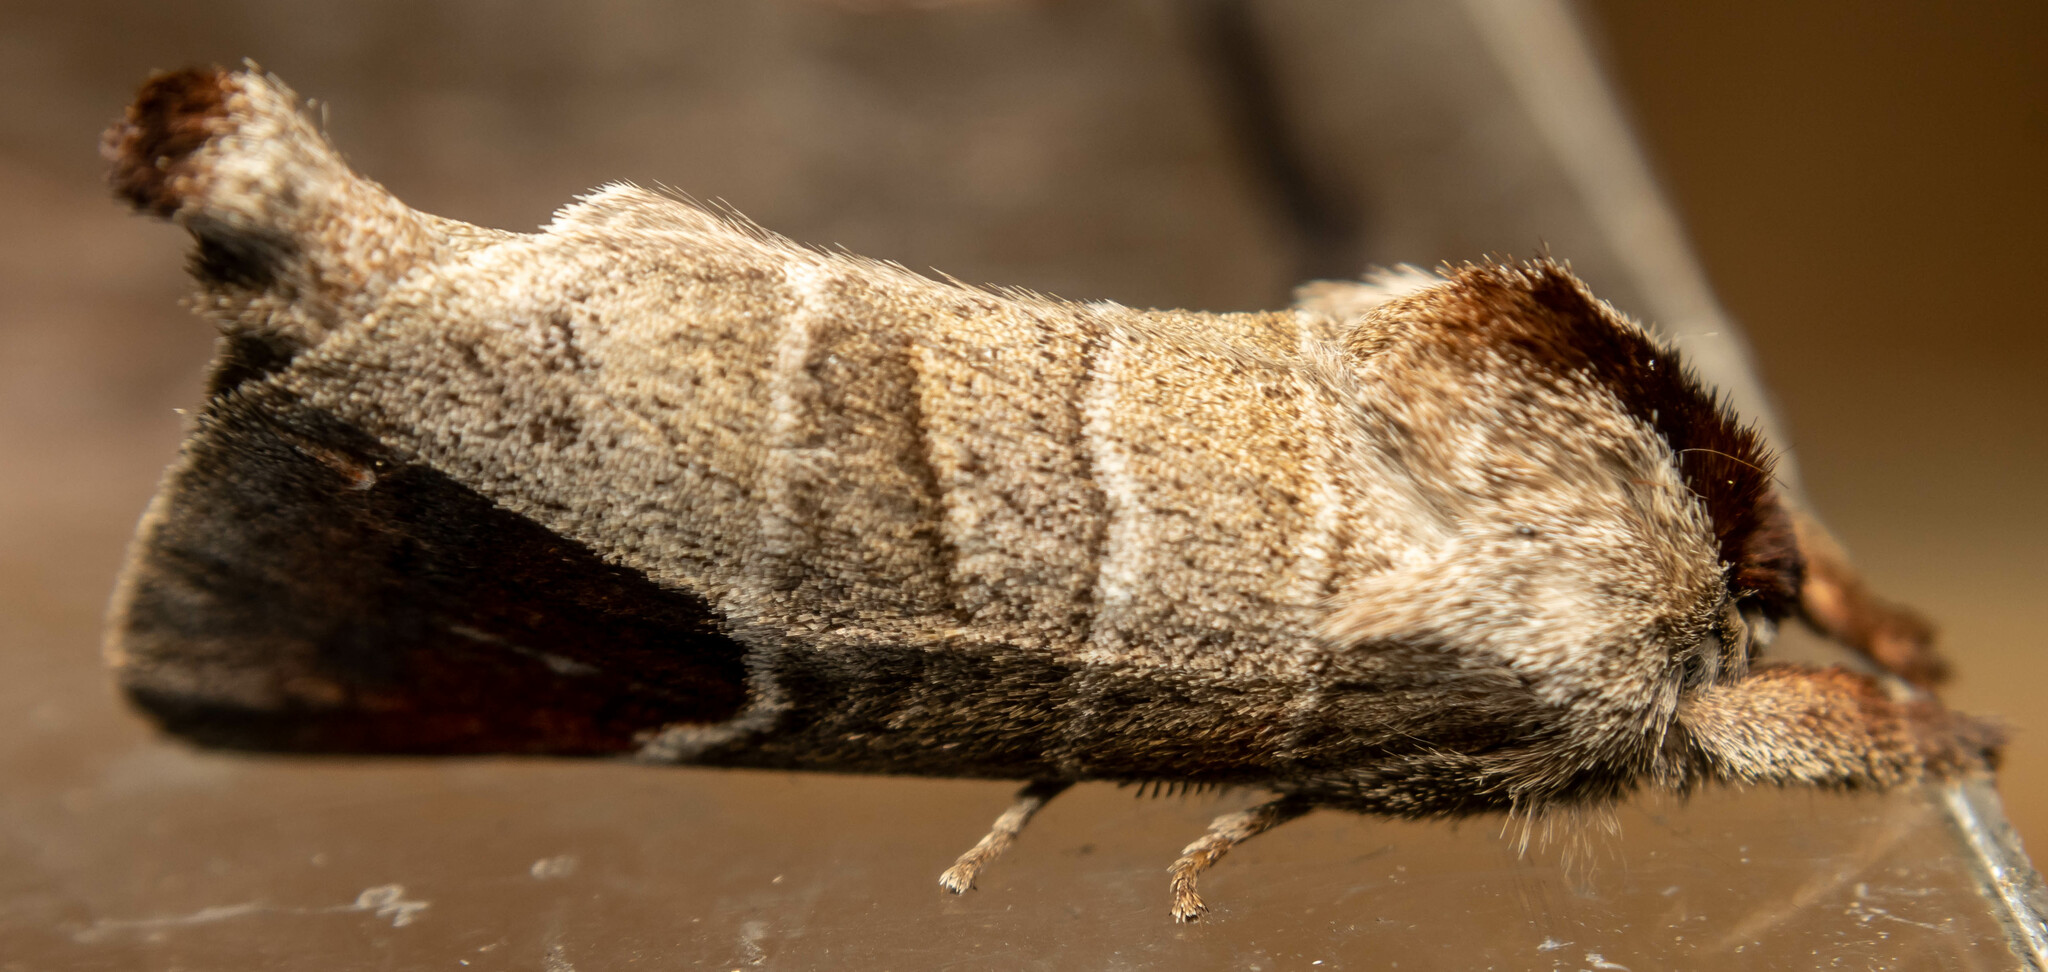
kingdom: Animalia
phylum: Arthropoda
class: Insecta
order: Lepidoptera
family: Notodontidae
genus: Clostera
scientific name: Clostera curtula
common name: Chocolate-tip
